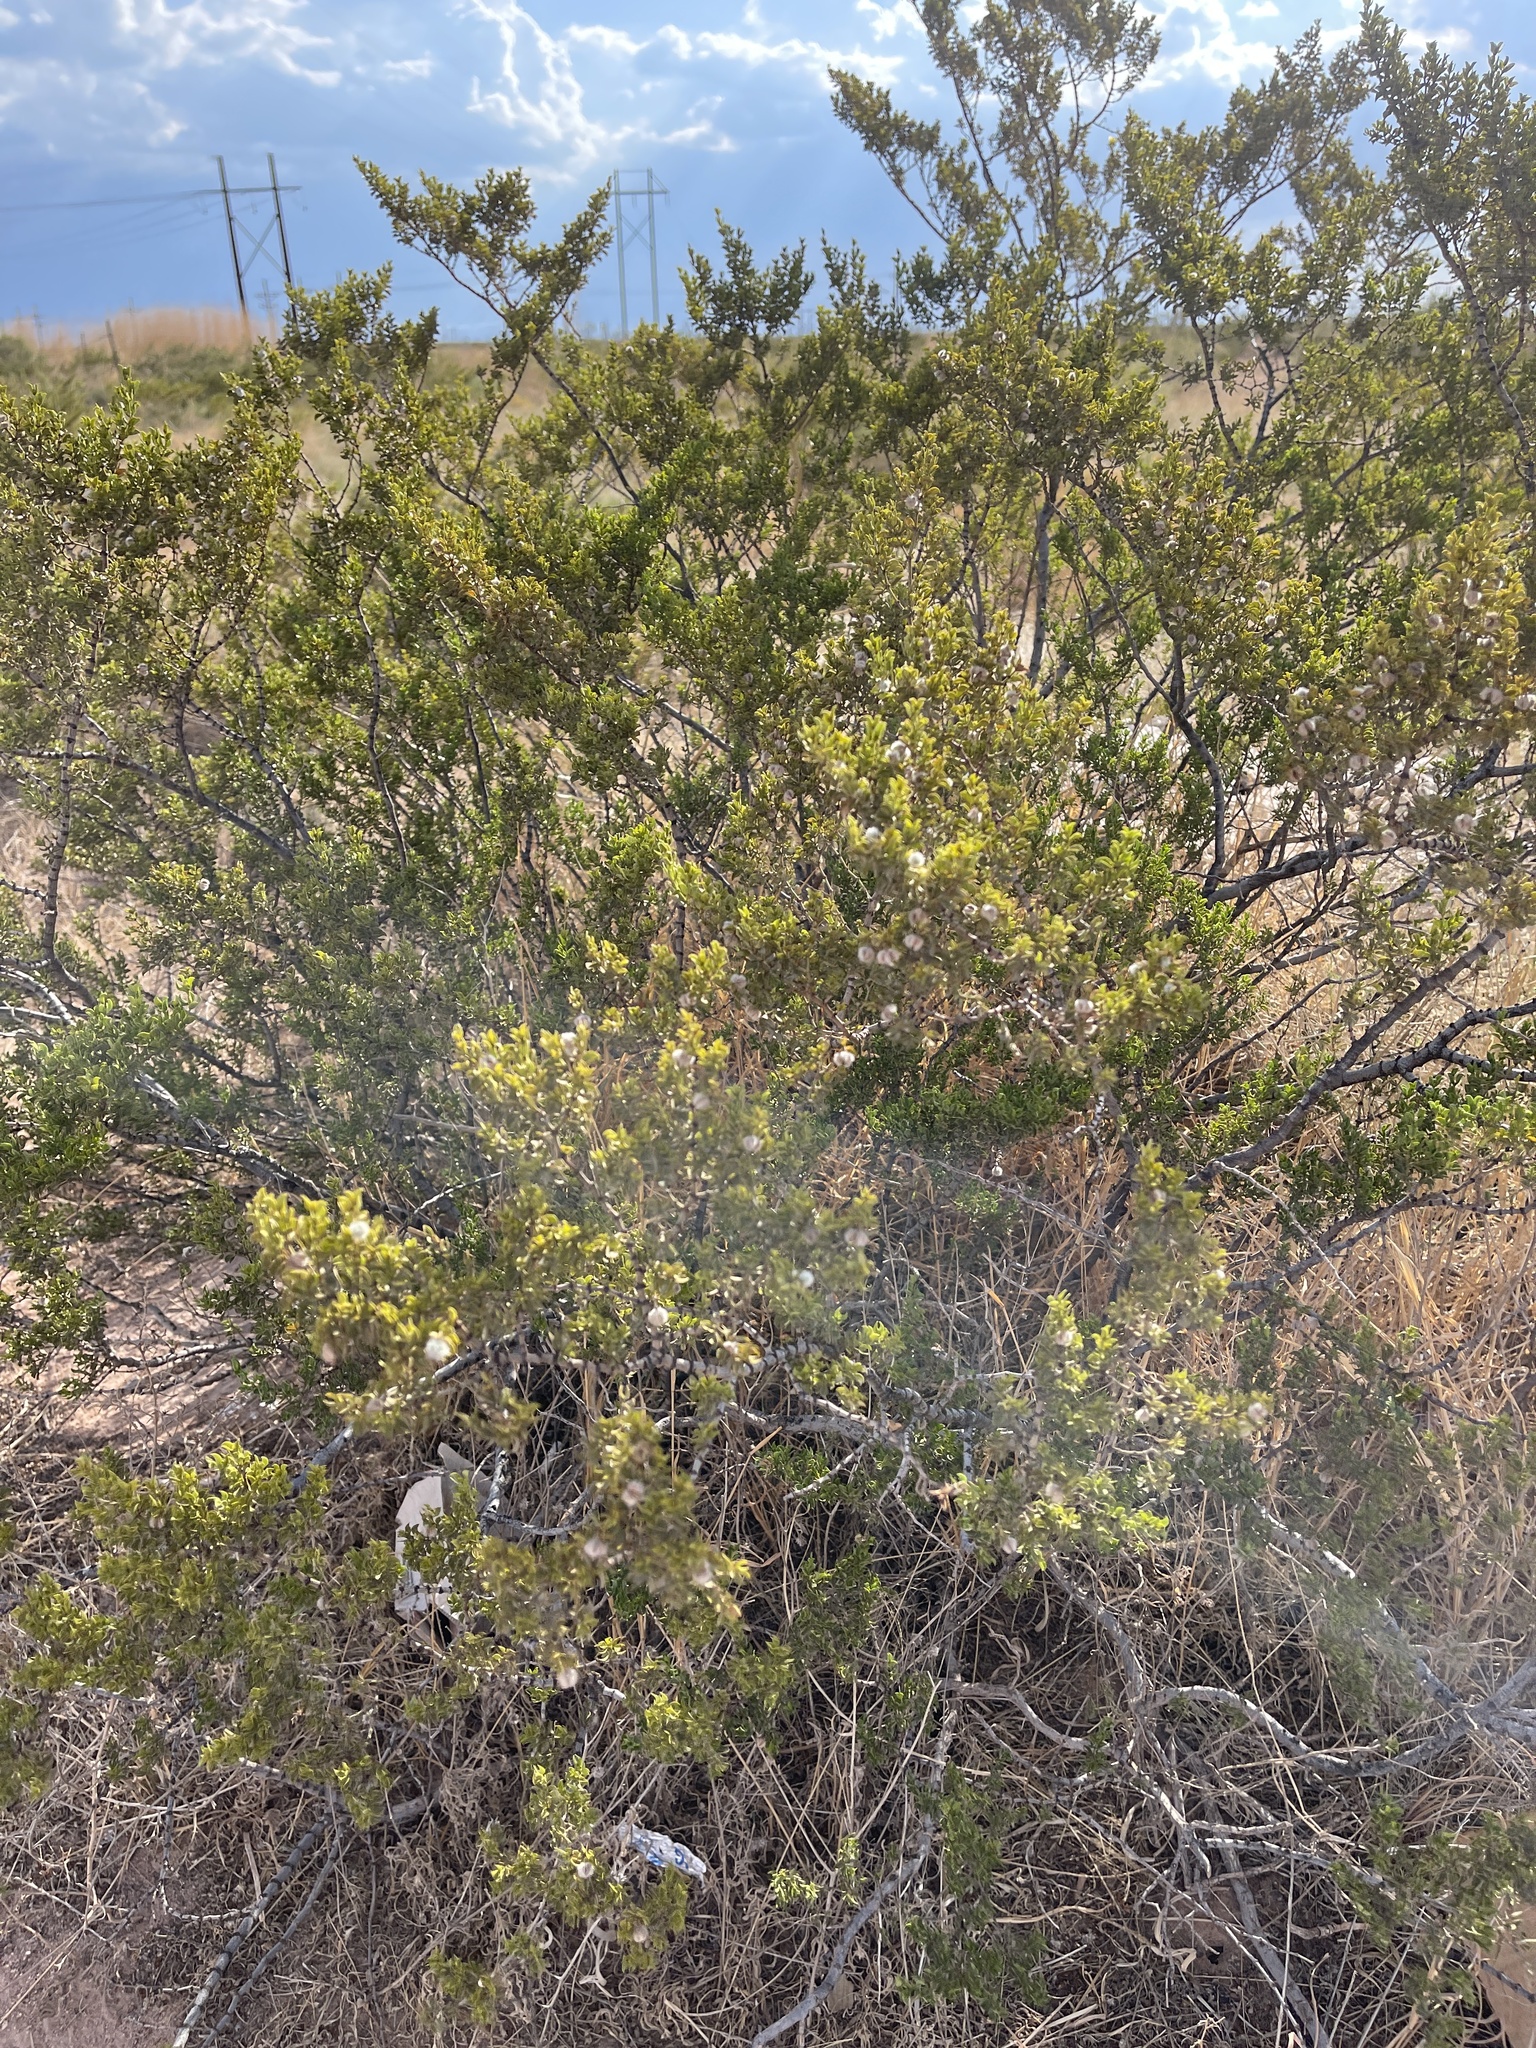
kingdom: Plantae
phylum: Tracheophyta
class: Magnoliopsida
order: Zygophyllales
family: Zygophyllaceae
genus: Larrea
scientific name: Larrea tridentata
